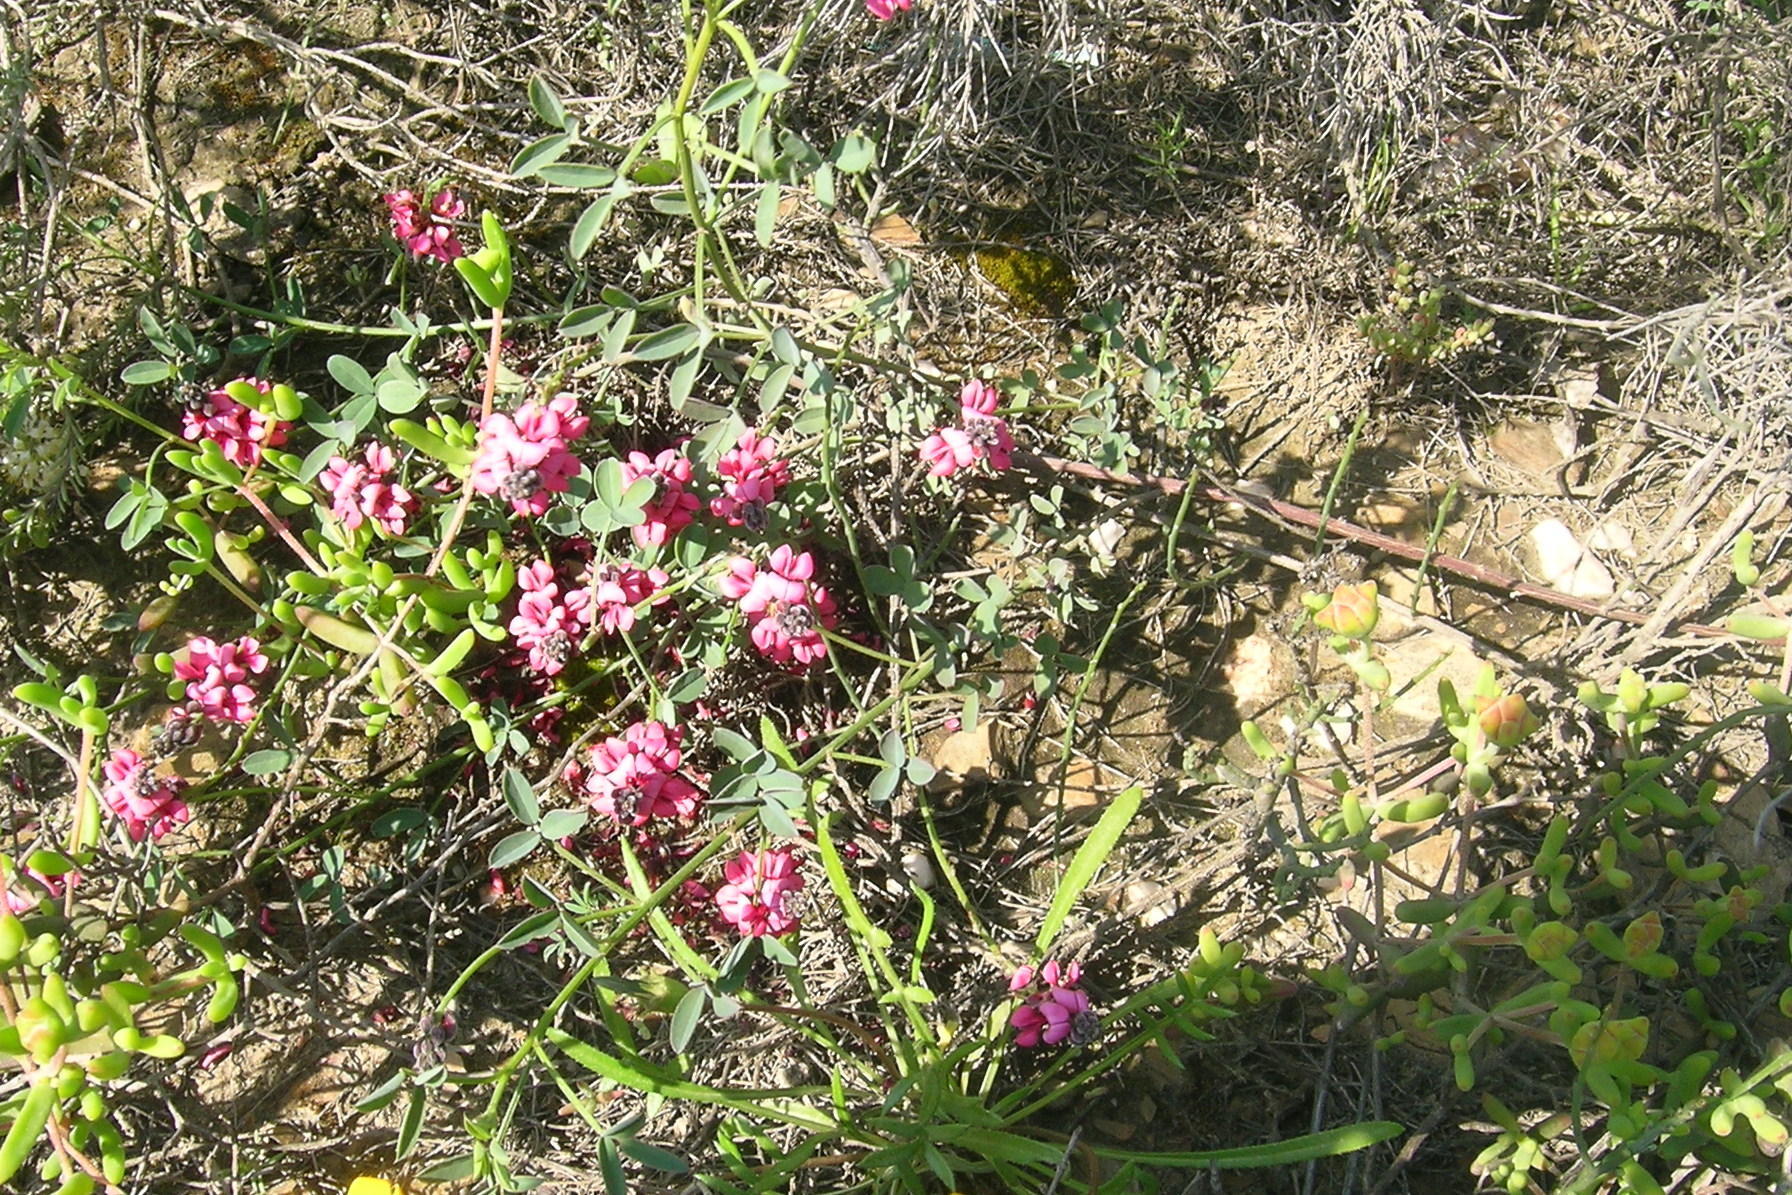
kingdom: Plantae
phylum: Tracheophyta
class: Magnoliopsida
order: Fabales
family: Fabaceae
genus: Indigofera
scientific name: Indigofera heterophylla
